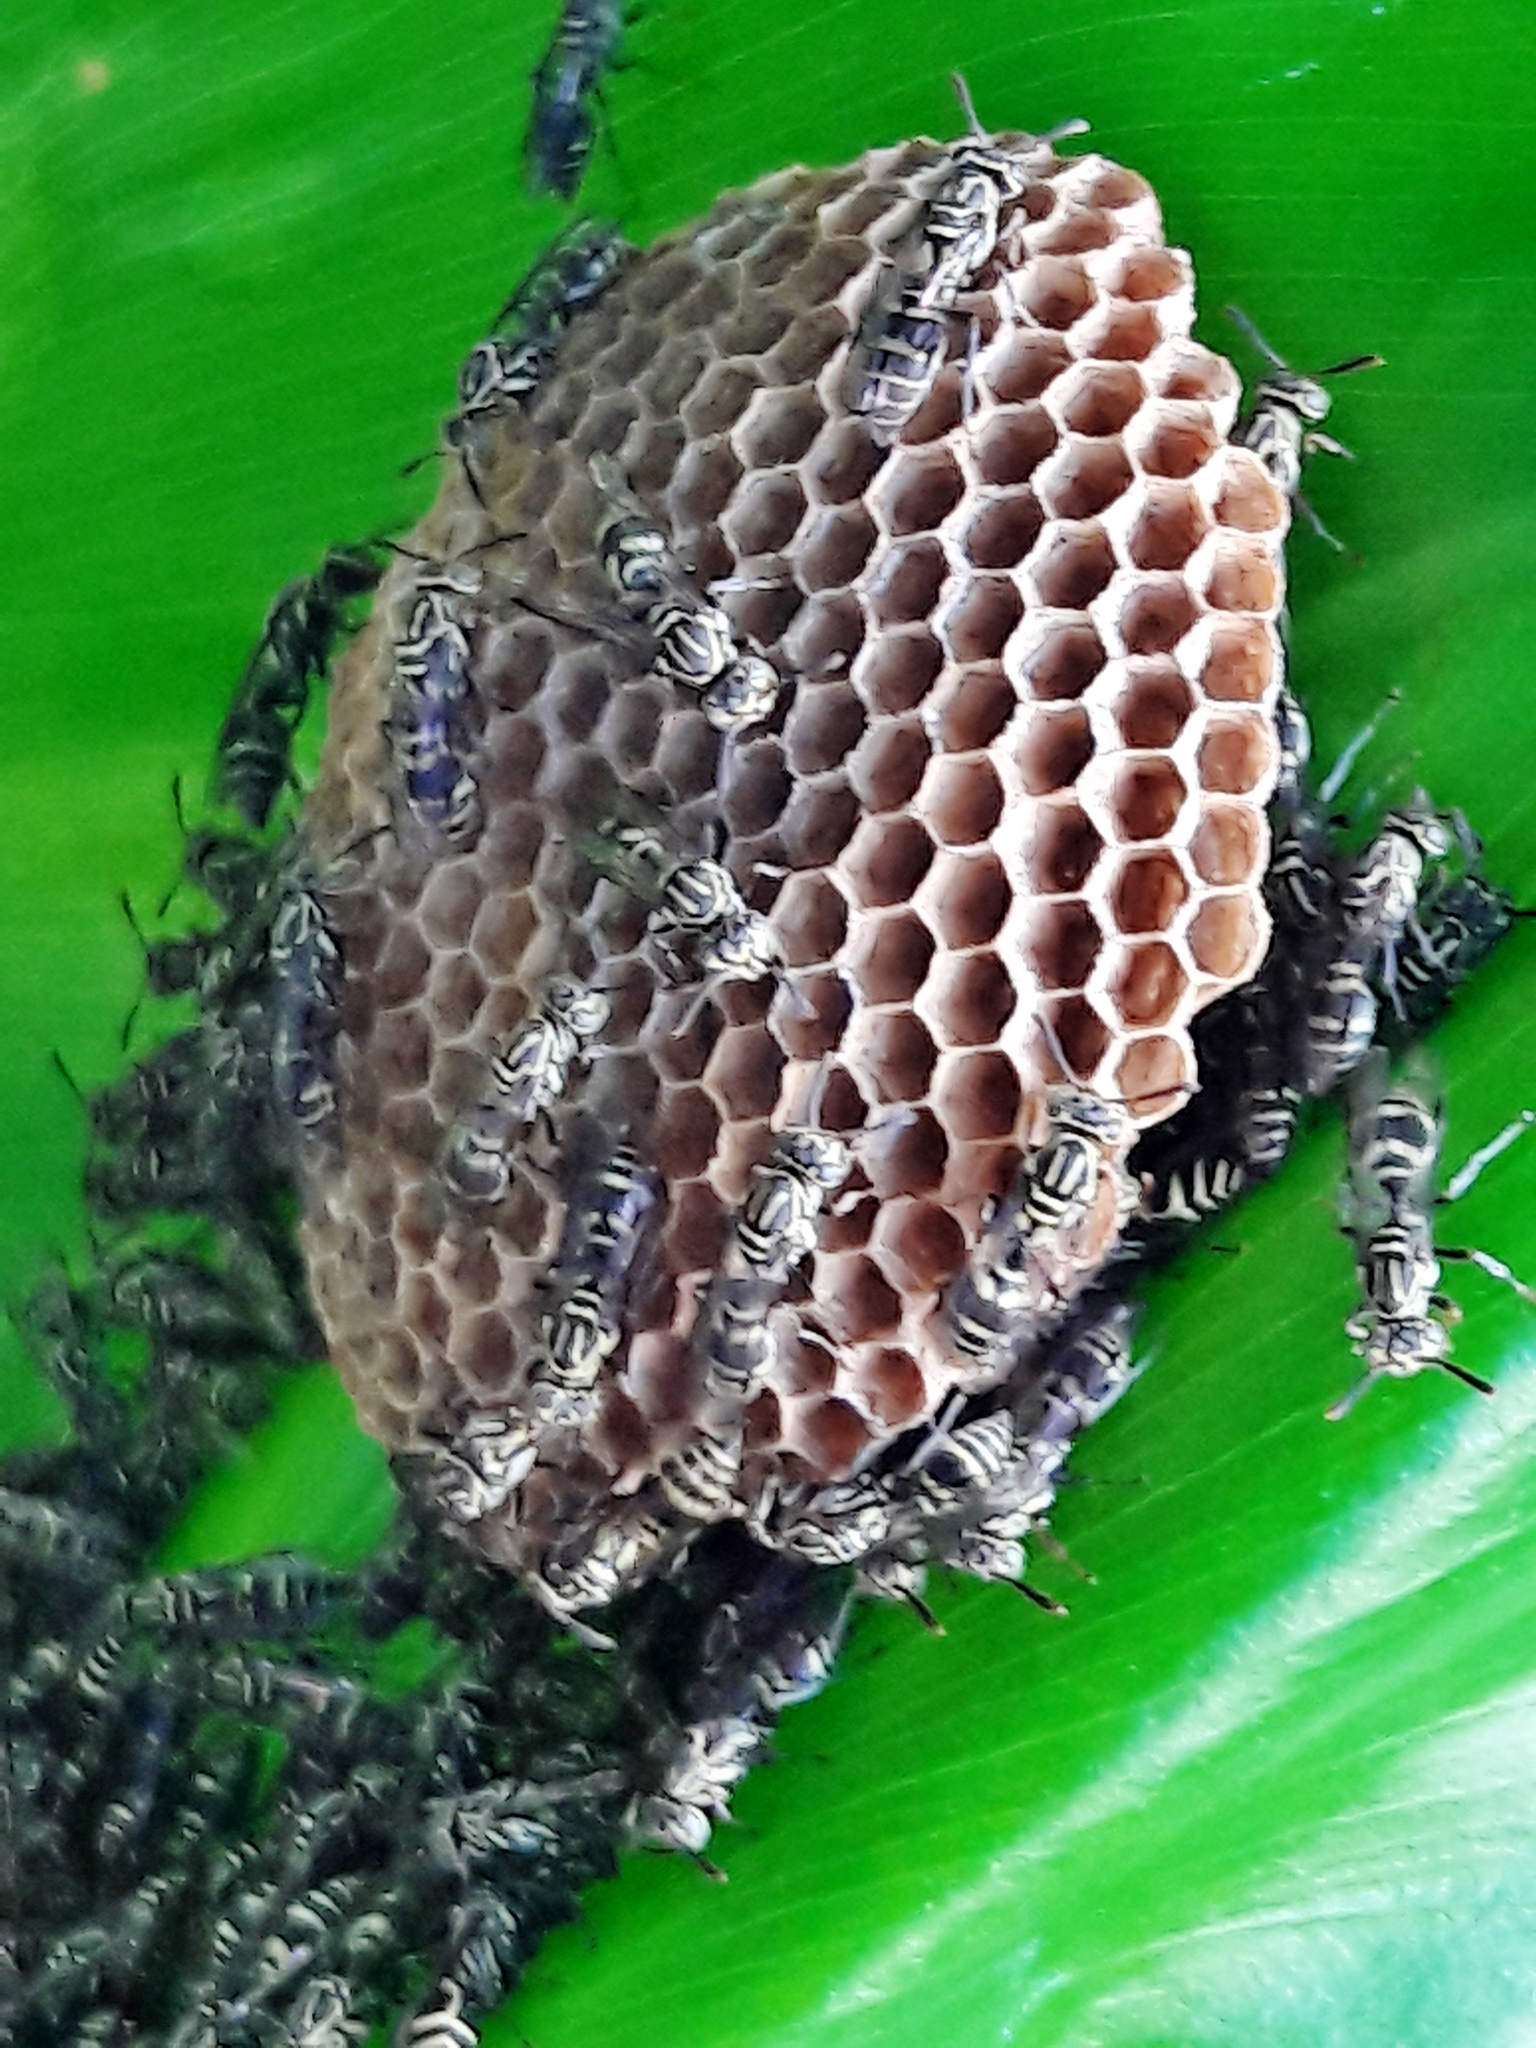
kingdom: Animalia
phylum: Arthropoda
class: Insecta
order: Hymenoptera
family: Vespidae
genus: Protopolybia
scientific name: Protopolybia exigua
